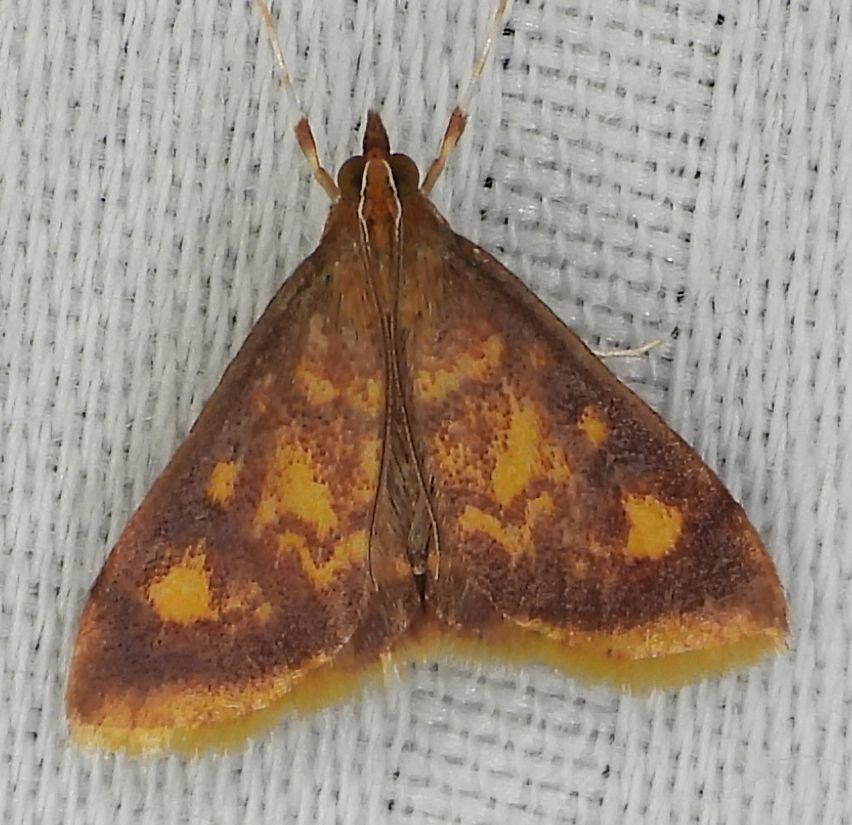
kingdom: Animalia
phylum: Arthropoda
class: Insecta
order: Lepidoptera
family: Crambidae
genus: Pyrausta
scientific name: Pyrausta acrionalis
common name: Mint-loving pyrausta moth
